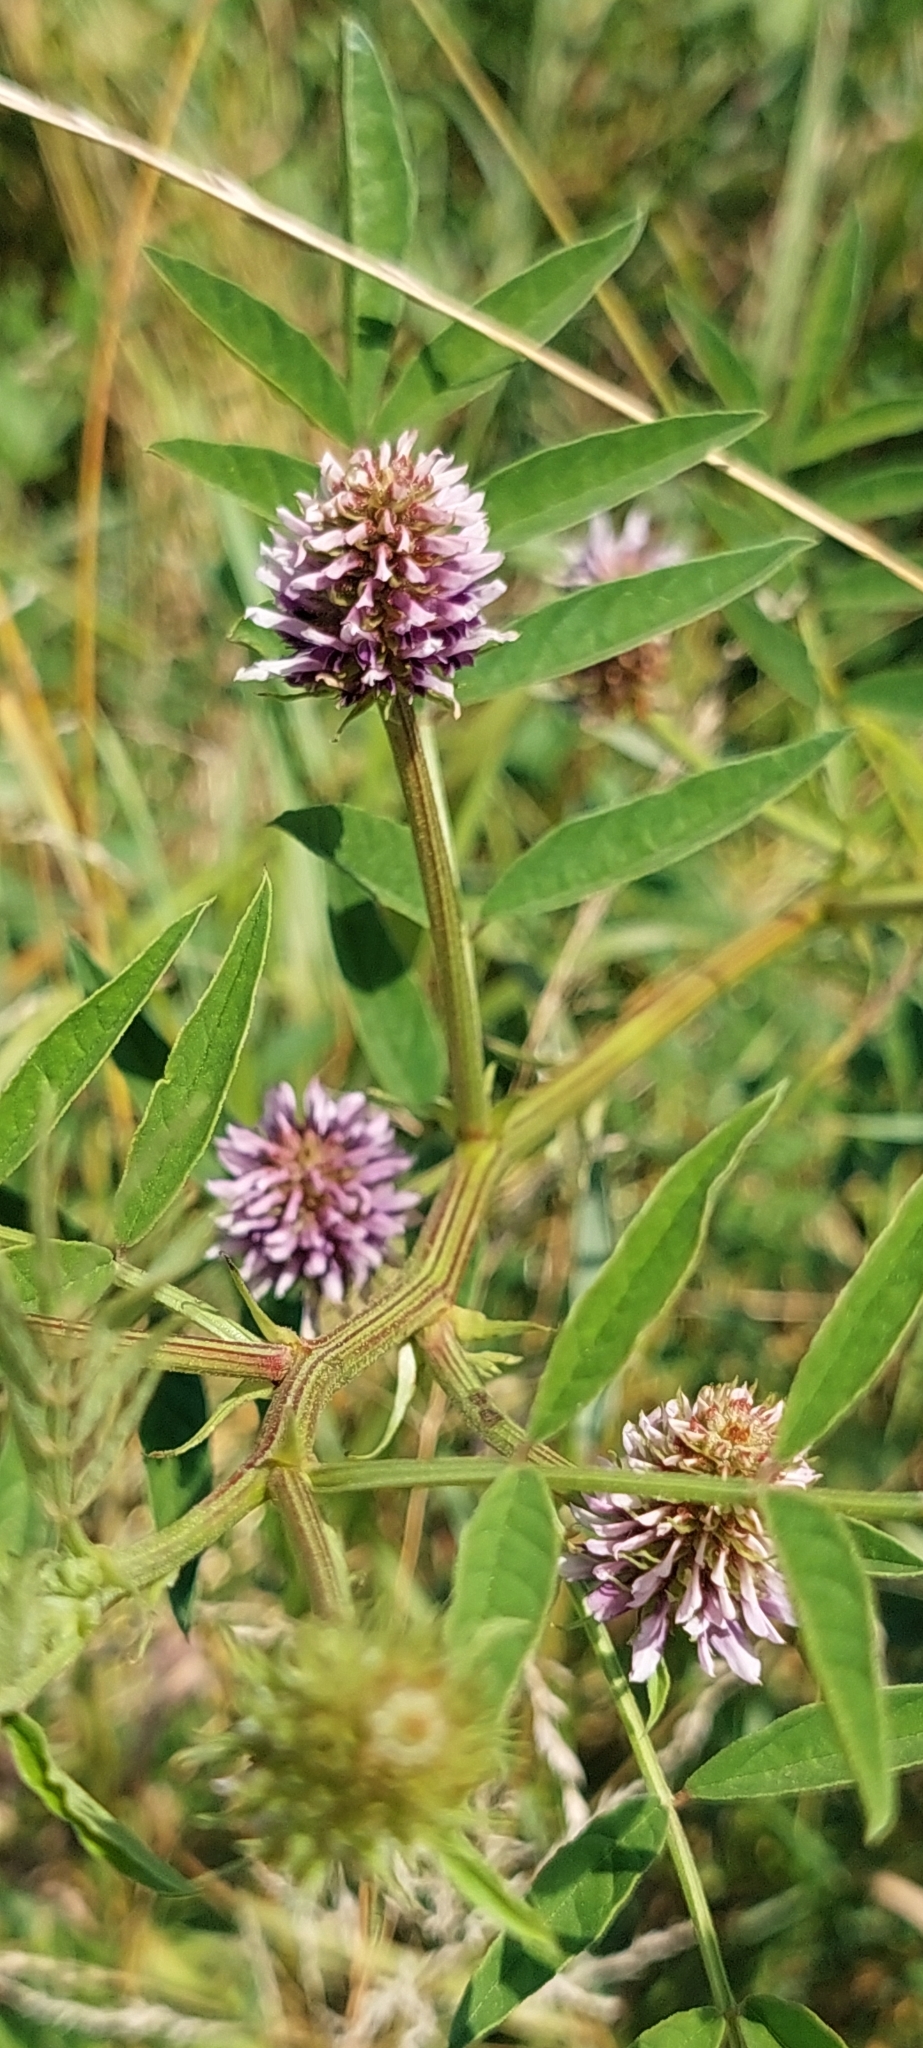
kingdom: Plantae
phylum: Tracheophyta
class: Magnoliopsida
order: Fabales
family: Fabaceae
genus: Glycyrrhiza
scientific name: Glycyrrhiza echinata
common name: German liquorice
